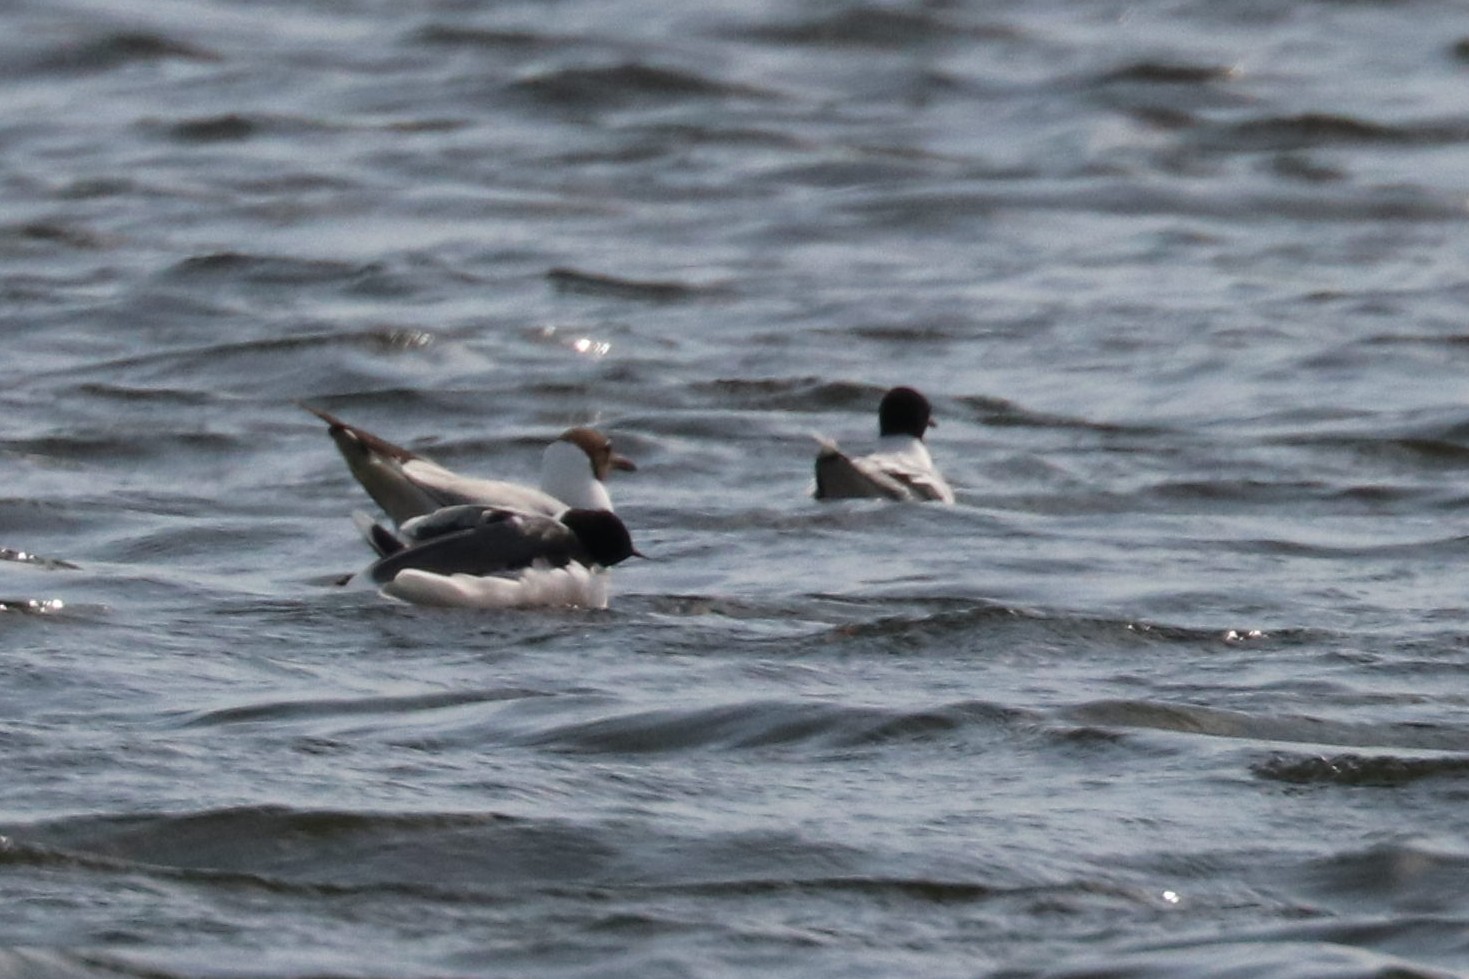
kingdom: Animalia
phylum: Chordata
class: Aves
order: Charadriiformes
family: Laridae
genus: Hydrocoloeus
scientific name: Hydrocoloeus minutus
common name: Little gull
